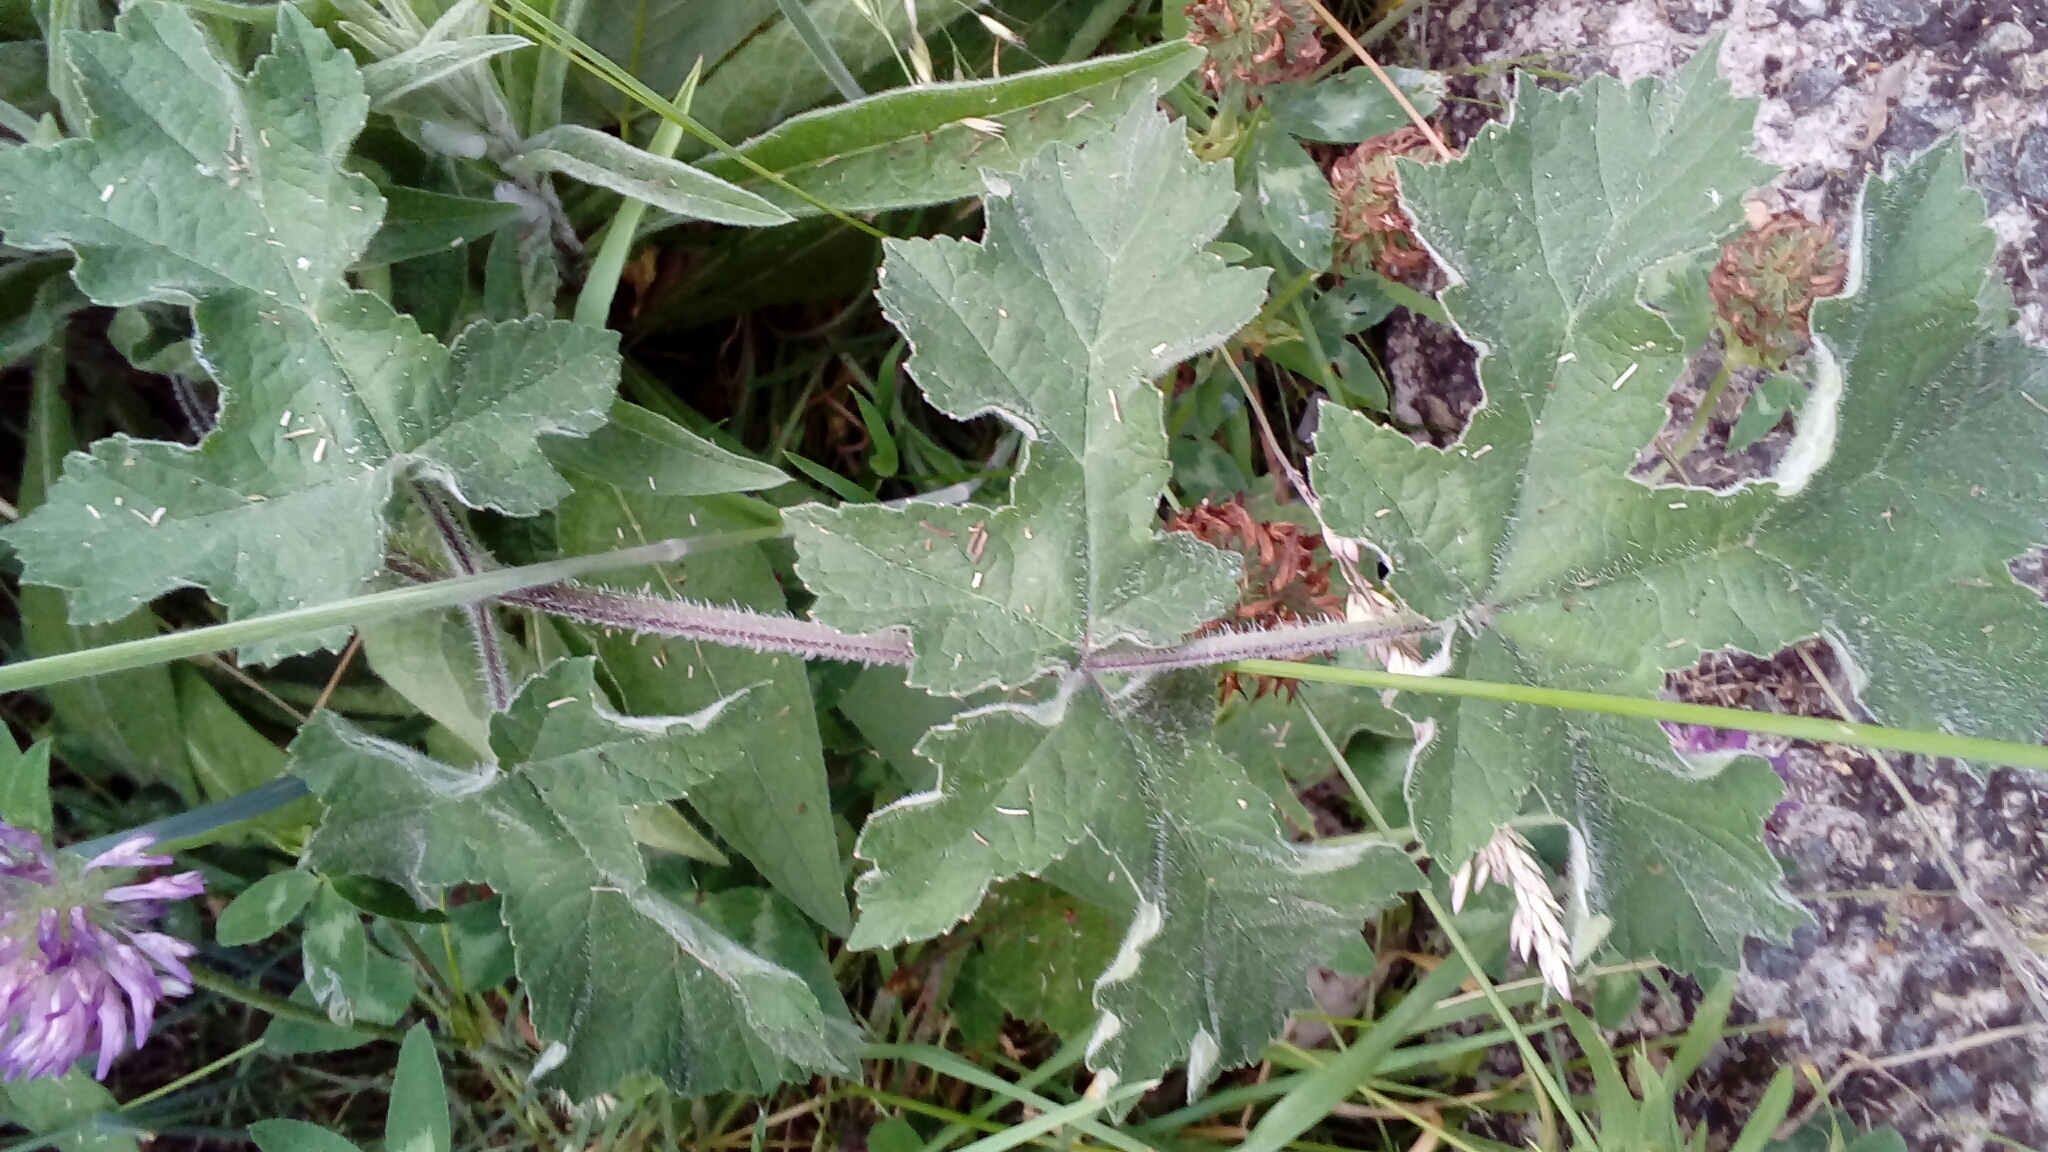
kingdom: Plantae
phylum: Tracheophyta
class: Magnoliopsida
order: Apiales
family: Apiaceae
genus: Heracleum
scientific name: Heracleum sphondylium
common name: Hogweed
